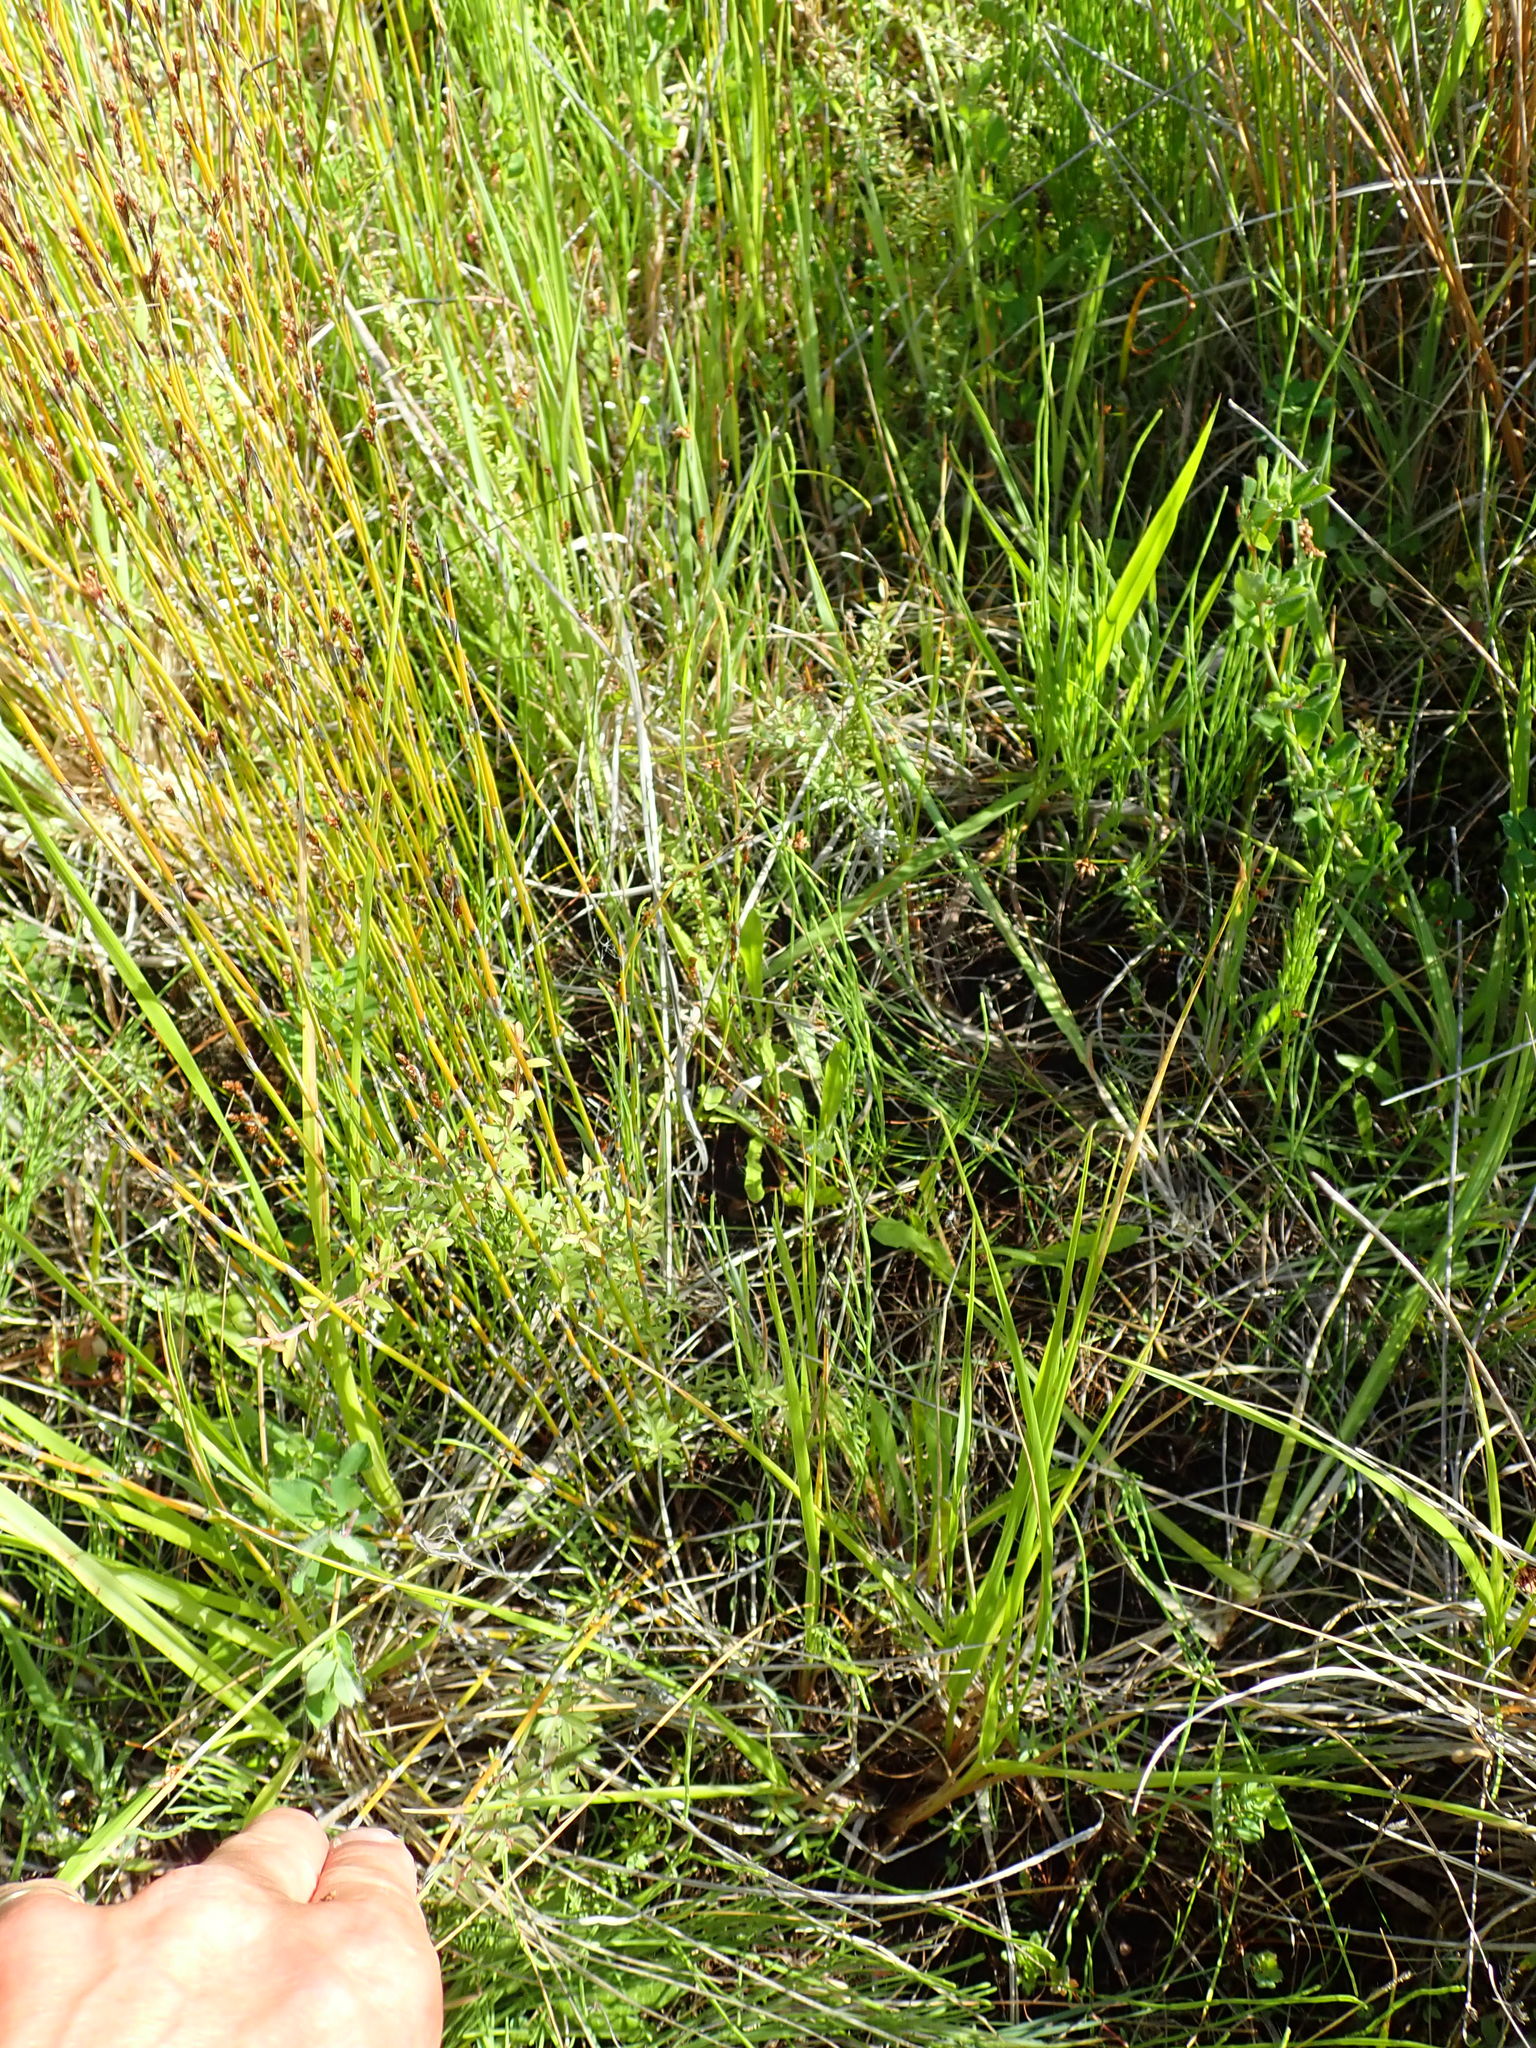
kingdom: Plantae
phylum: Tracheophyta
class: Magnoliopsida
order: Myrtales
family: Myrtaceae
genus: Leptospermum
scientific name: Leptospermum scoparium
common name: Broom tea-tree
